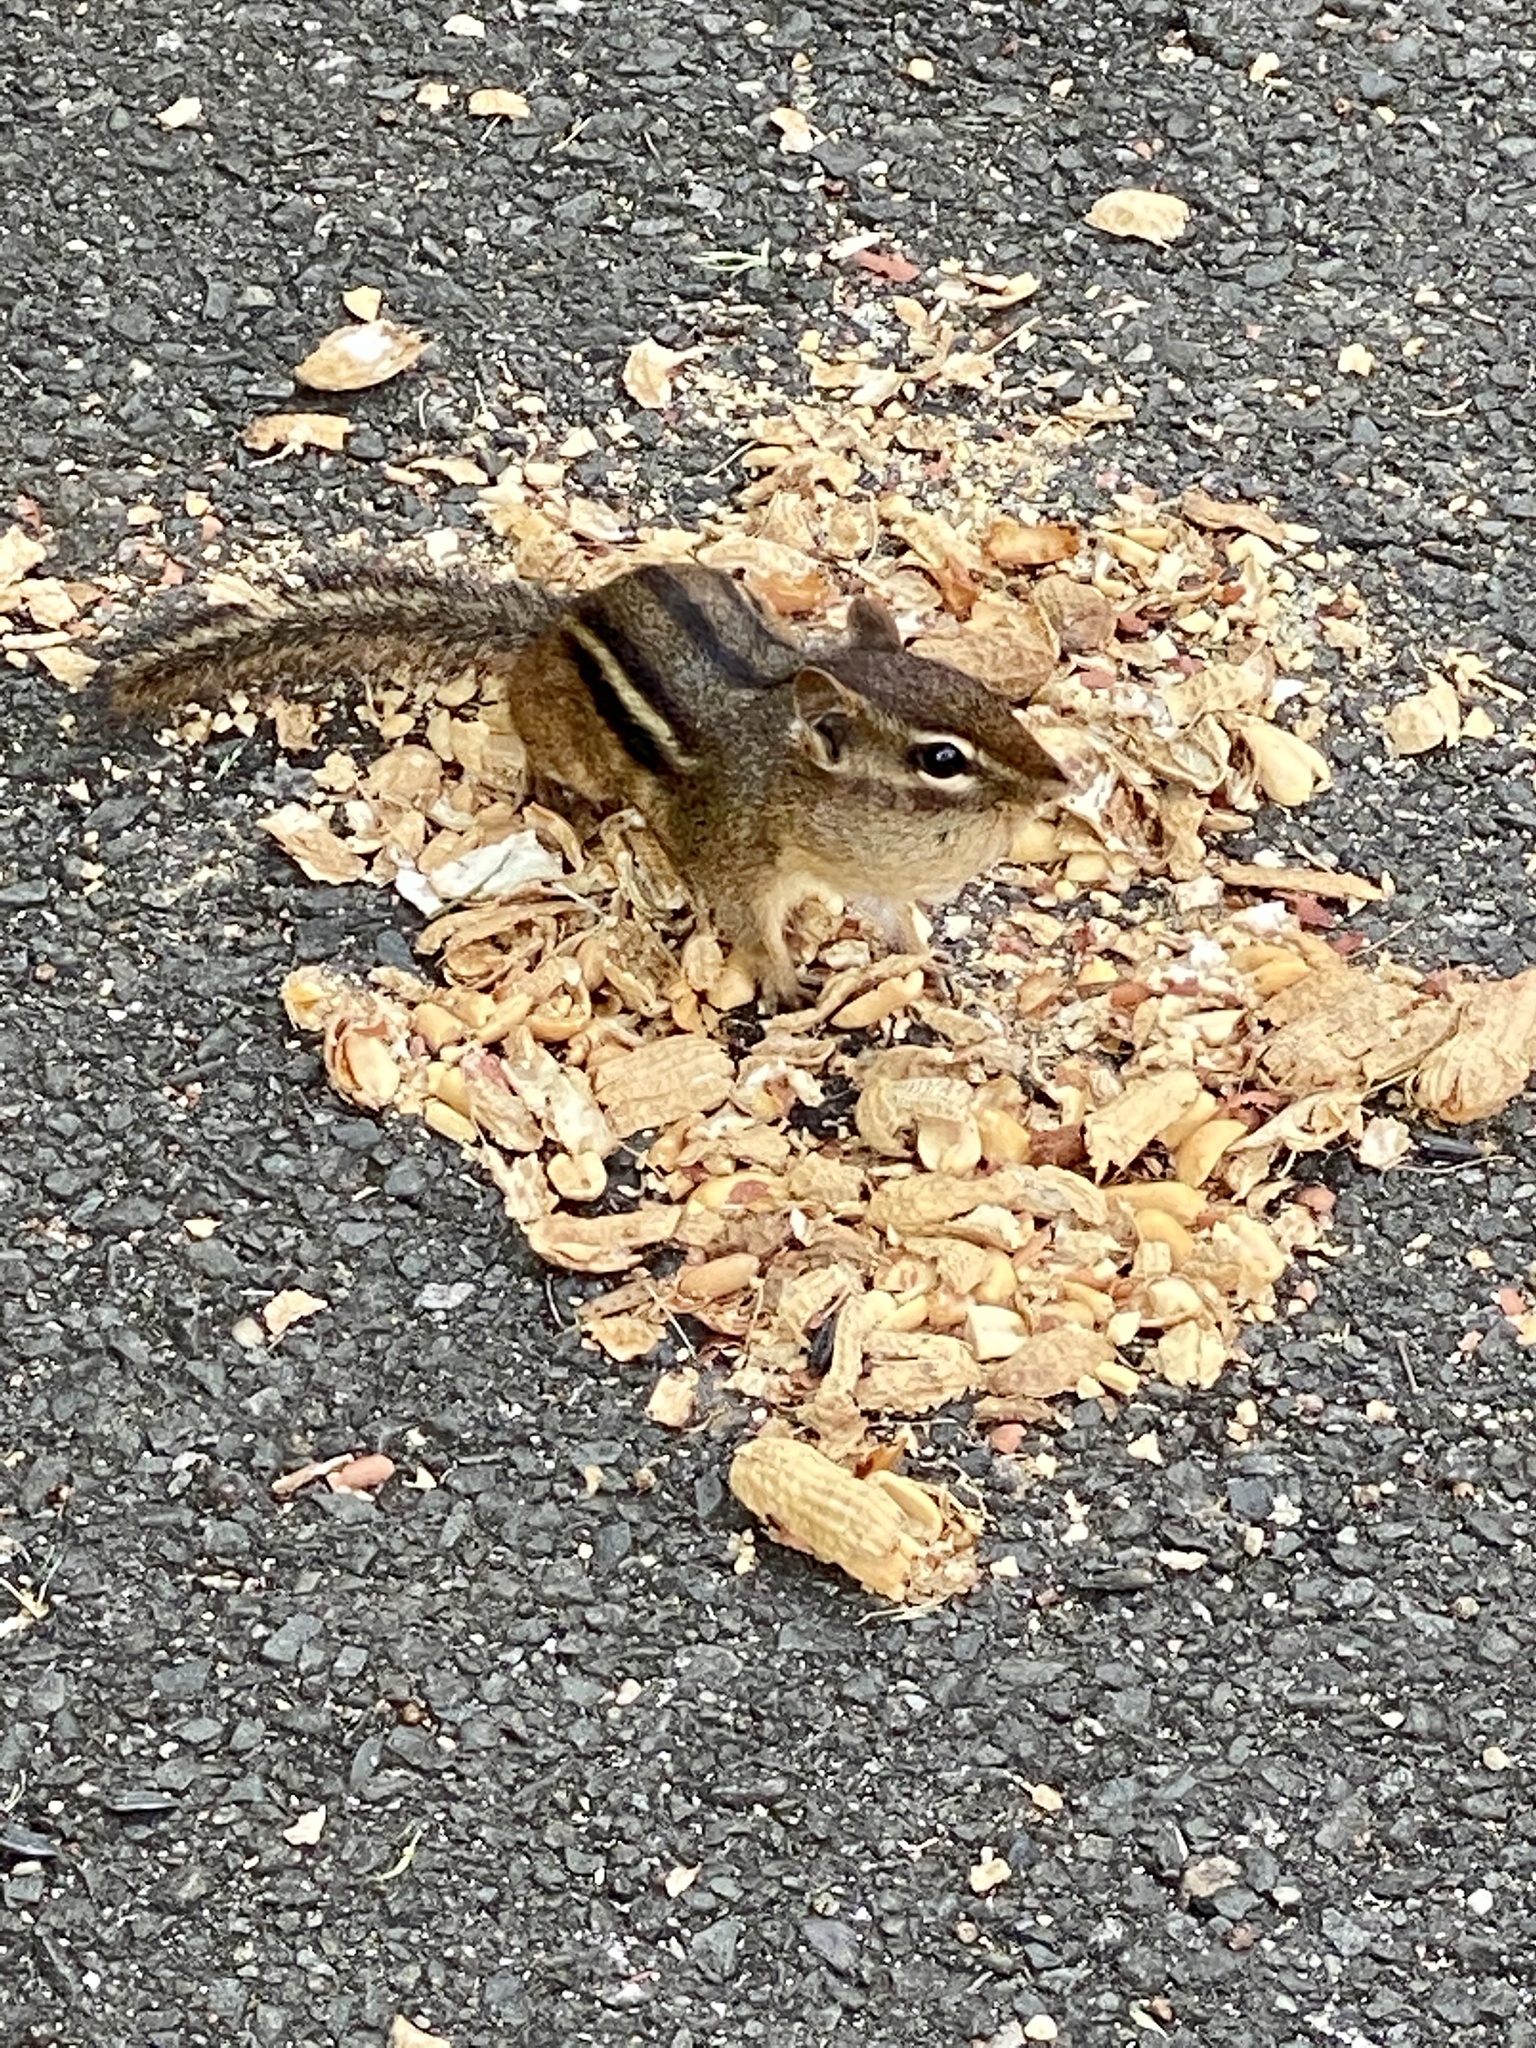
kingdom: Animalia
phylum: Chordata
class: Mammalia
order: Rodentia
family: Sciuridae
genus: Tamias
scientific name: Tamias striatus
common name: Eastern chipmunk
